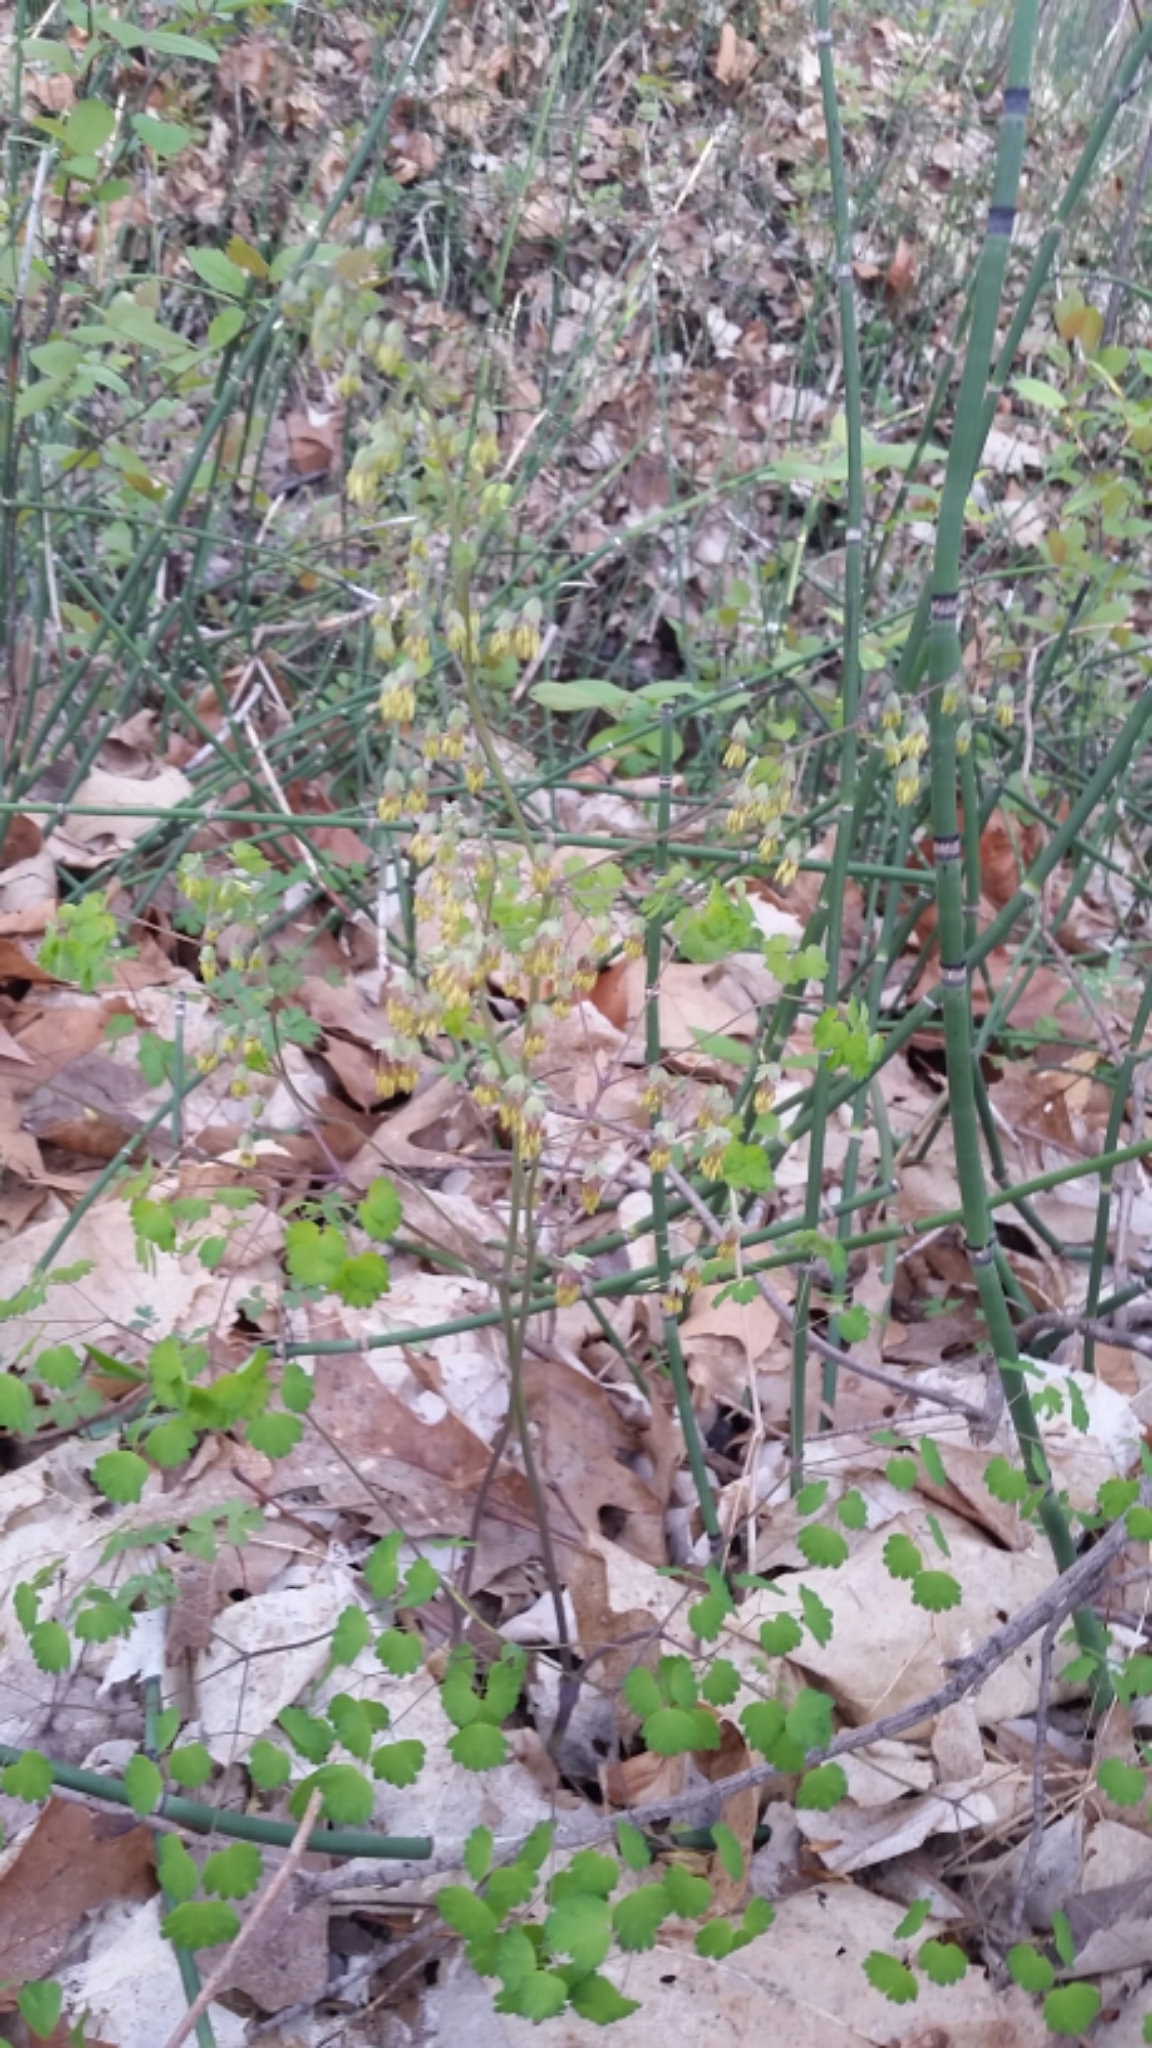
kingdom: Plantae
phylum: Tracheophyta
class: Magnoliopsida
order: Ranunculales
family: Ranunculaceae
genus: Thalictrum
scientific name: Thalictrum dioicum
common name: Early meadow-rue
